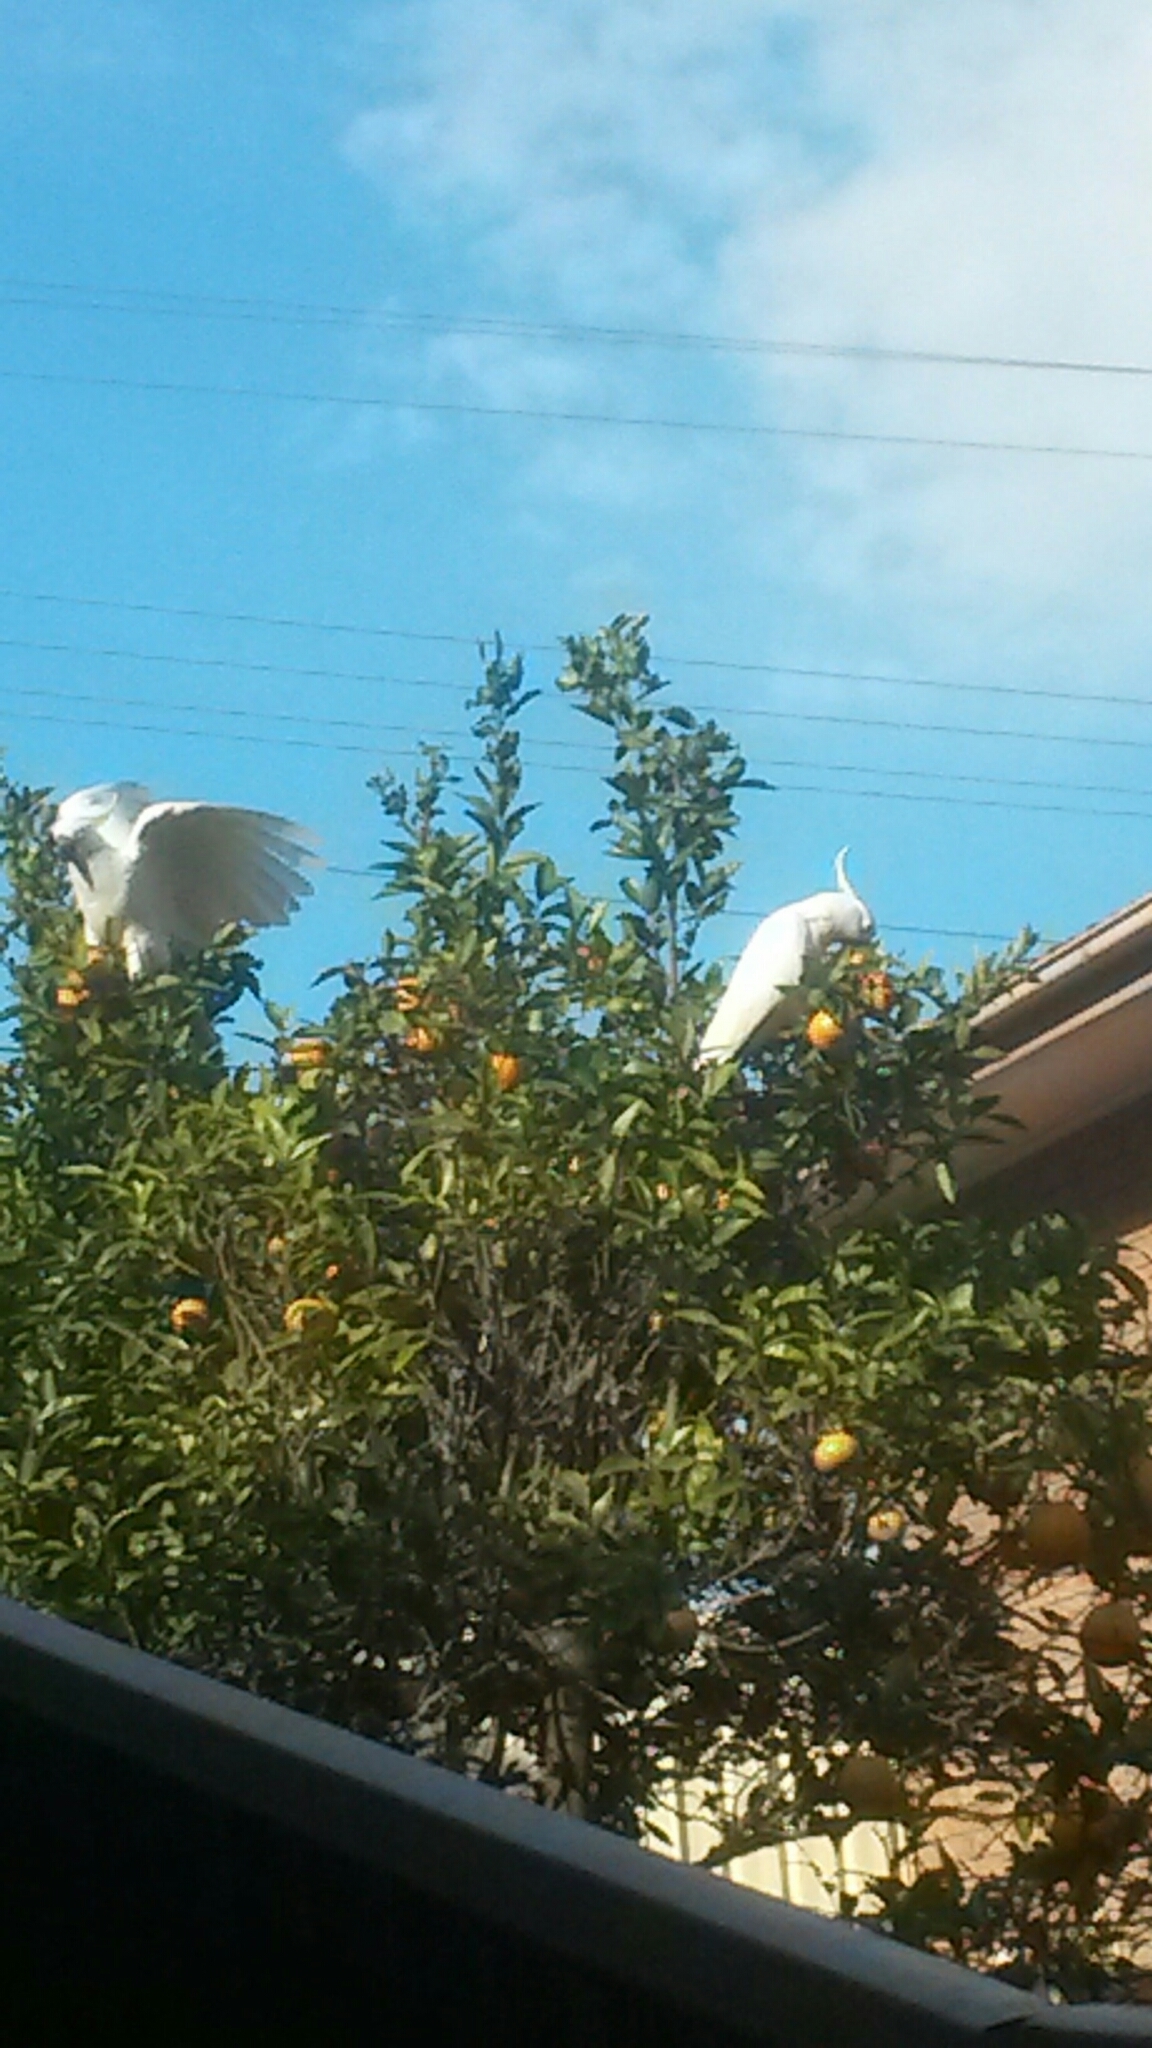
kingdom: Animalia
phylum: Chordata
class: Aves
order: Psittaciformes
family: Psittacidae
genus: Cacatua
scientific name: Cacatua galerita
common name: Sulphur-crested cockatoo
